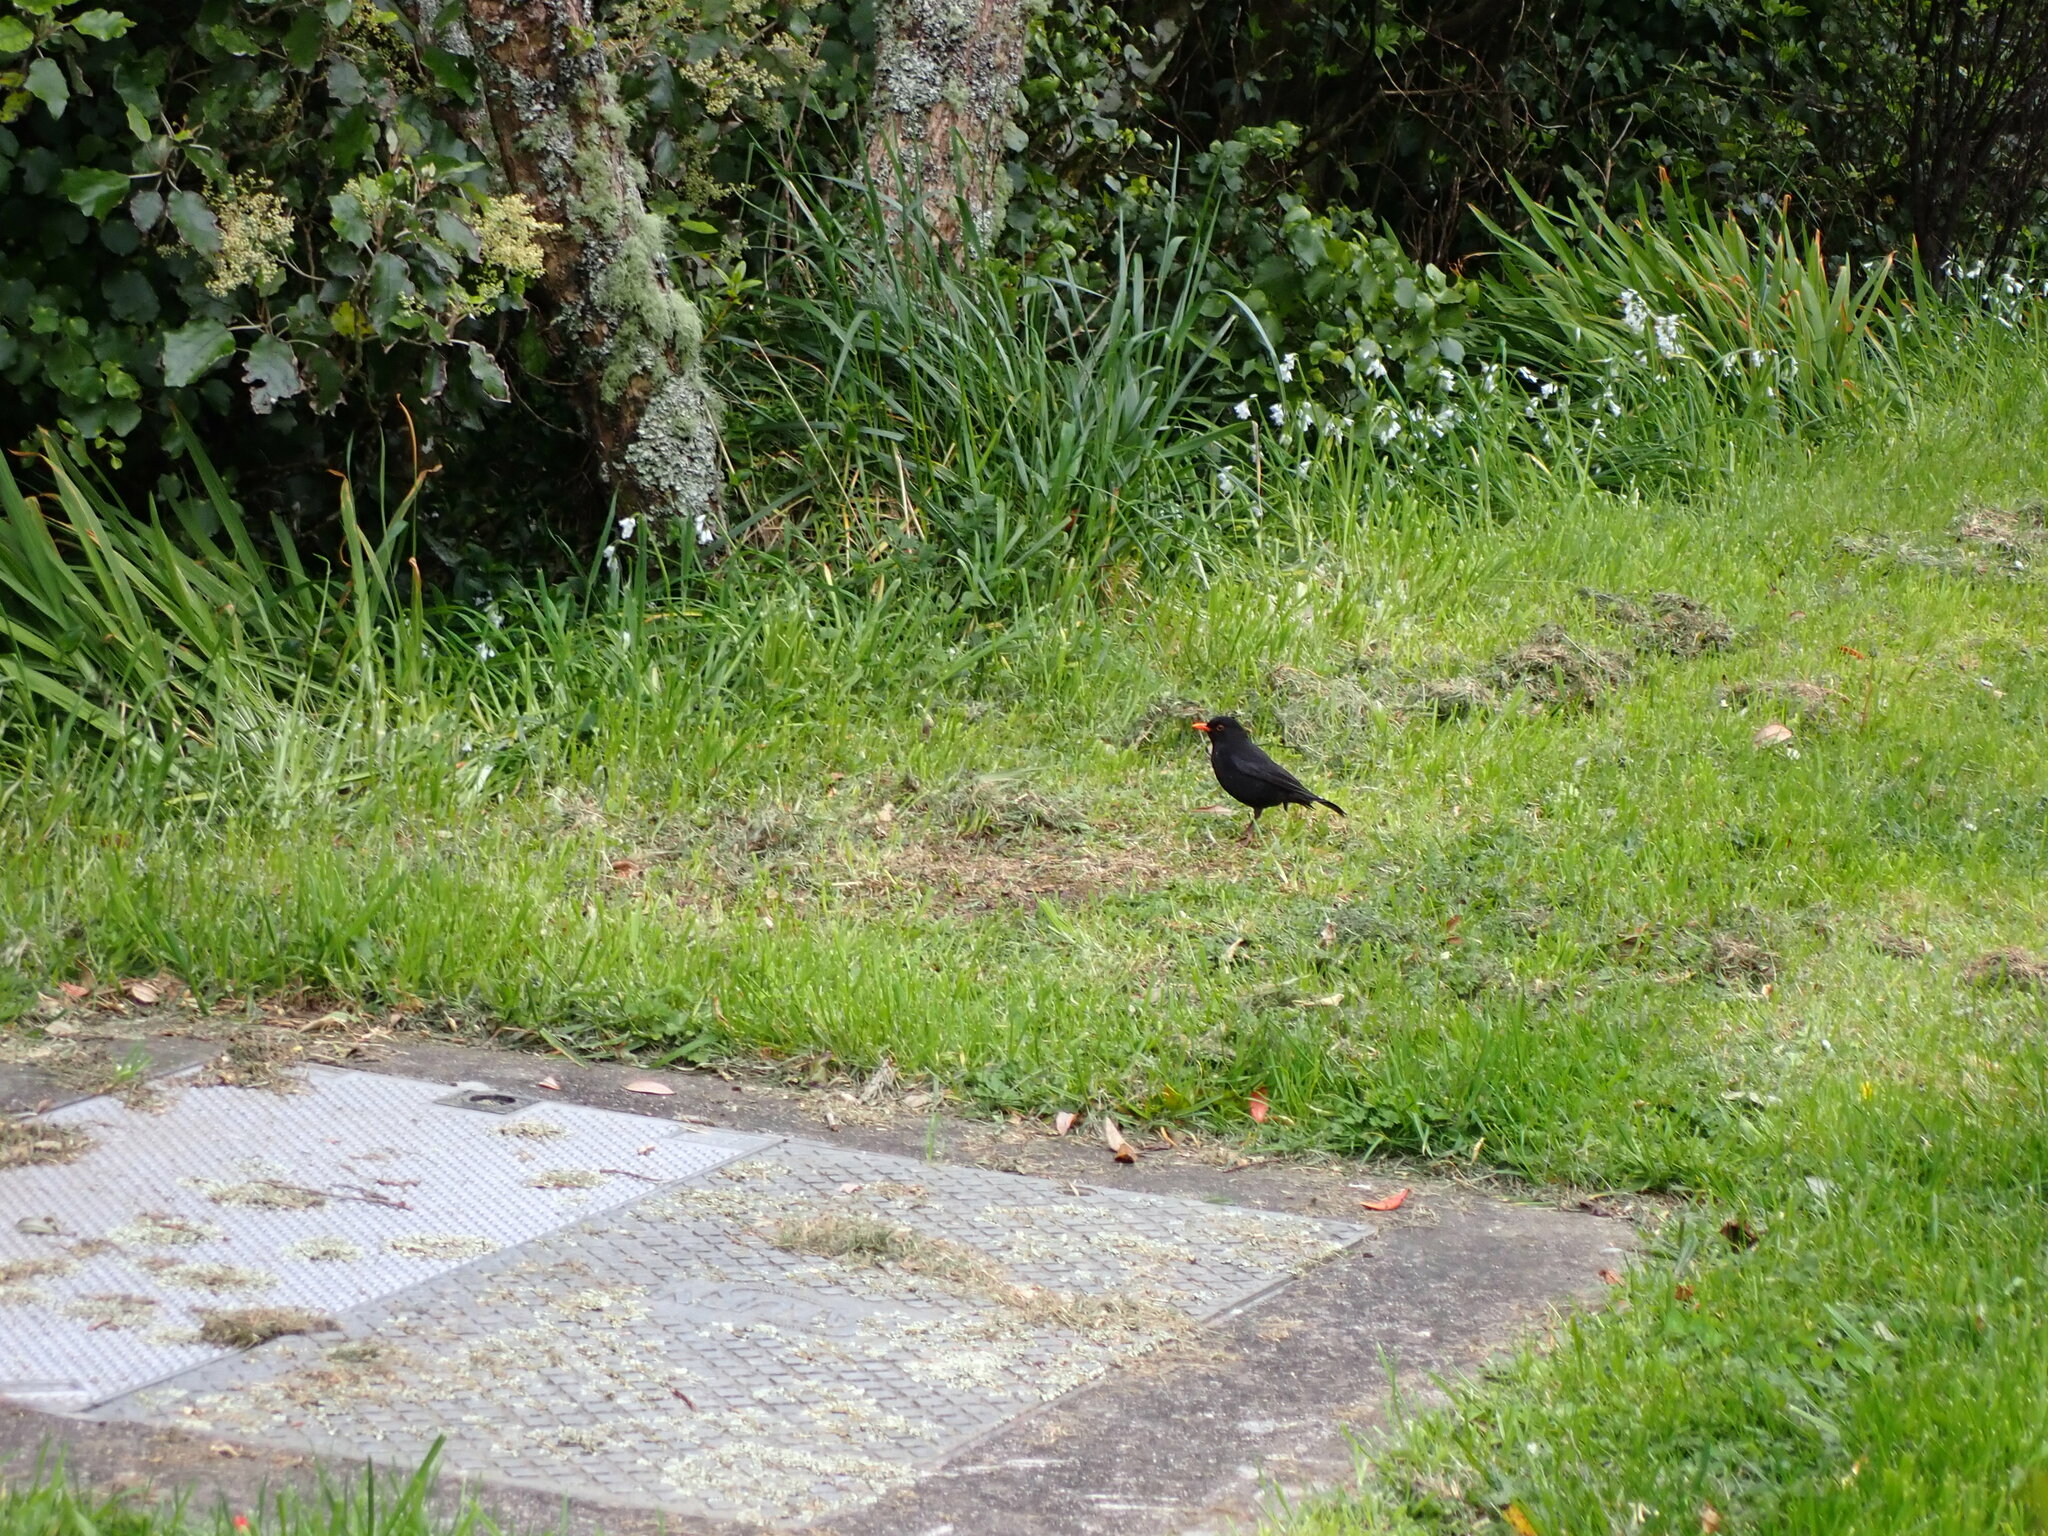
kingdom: Animalia
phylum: Chordata
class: Aves
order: Passeriformes
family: Turdidae
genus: Turdus
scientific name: Turdus merula
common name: Common blackbird
